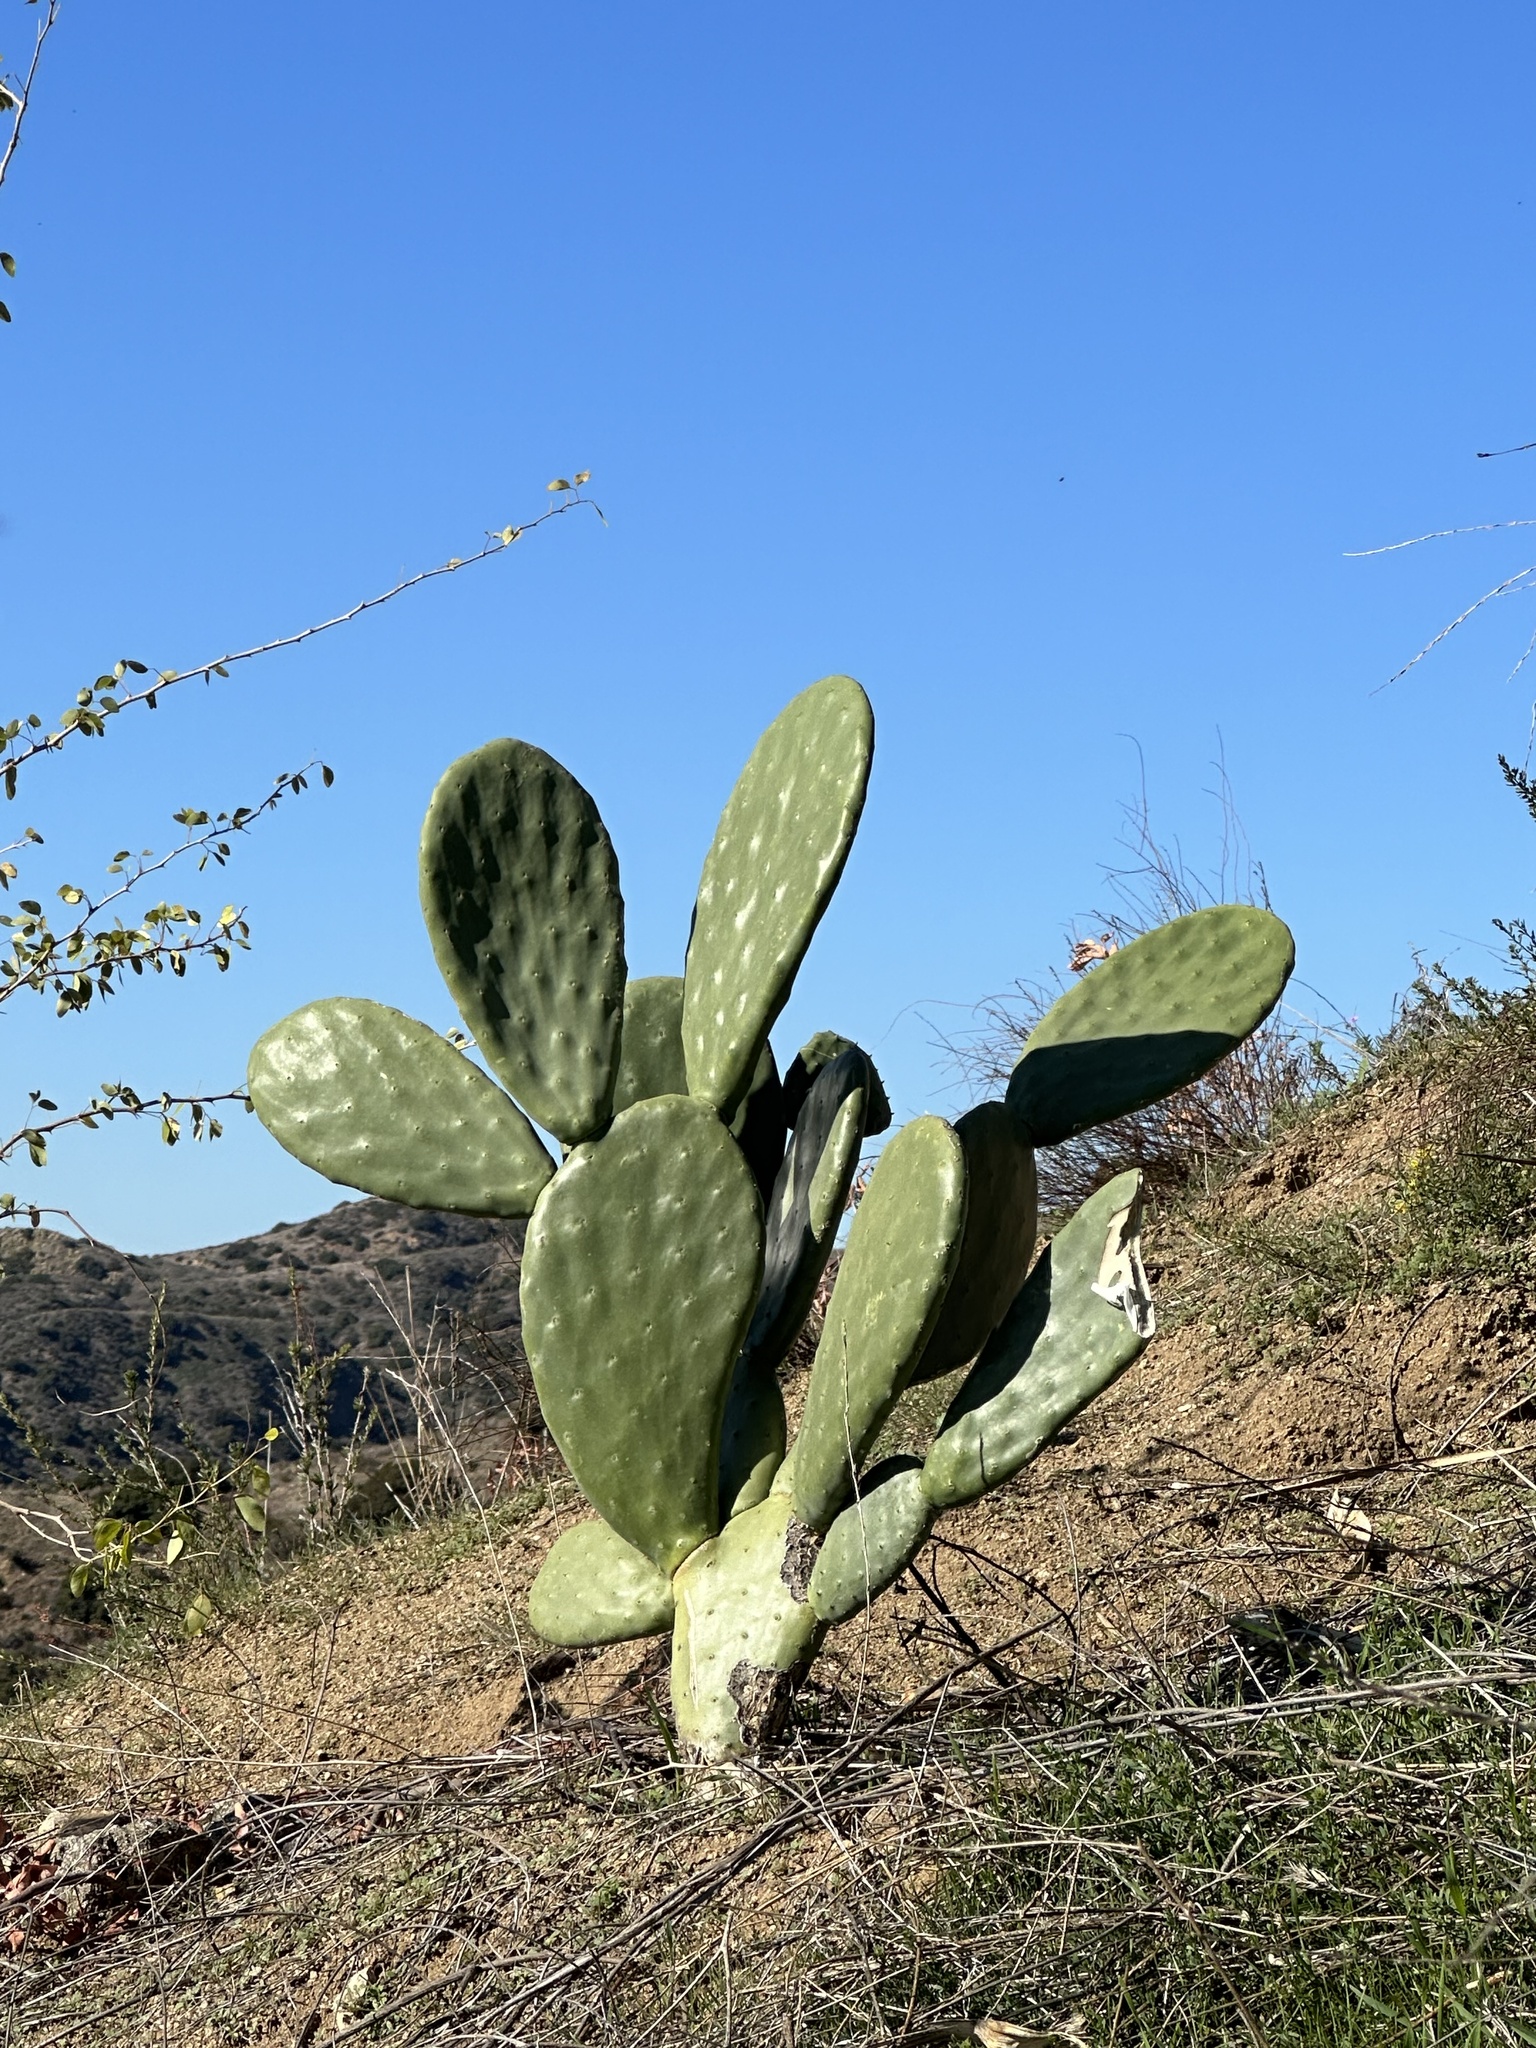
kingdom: Plantae
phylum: Tracheophyta
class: Magnoliopsida
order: Caryophyllales
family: Cactaceae
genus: Opuntia
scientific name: Opuntia ficus-indica
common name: Barbary fig
